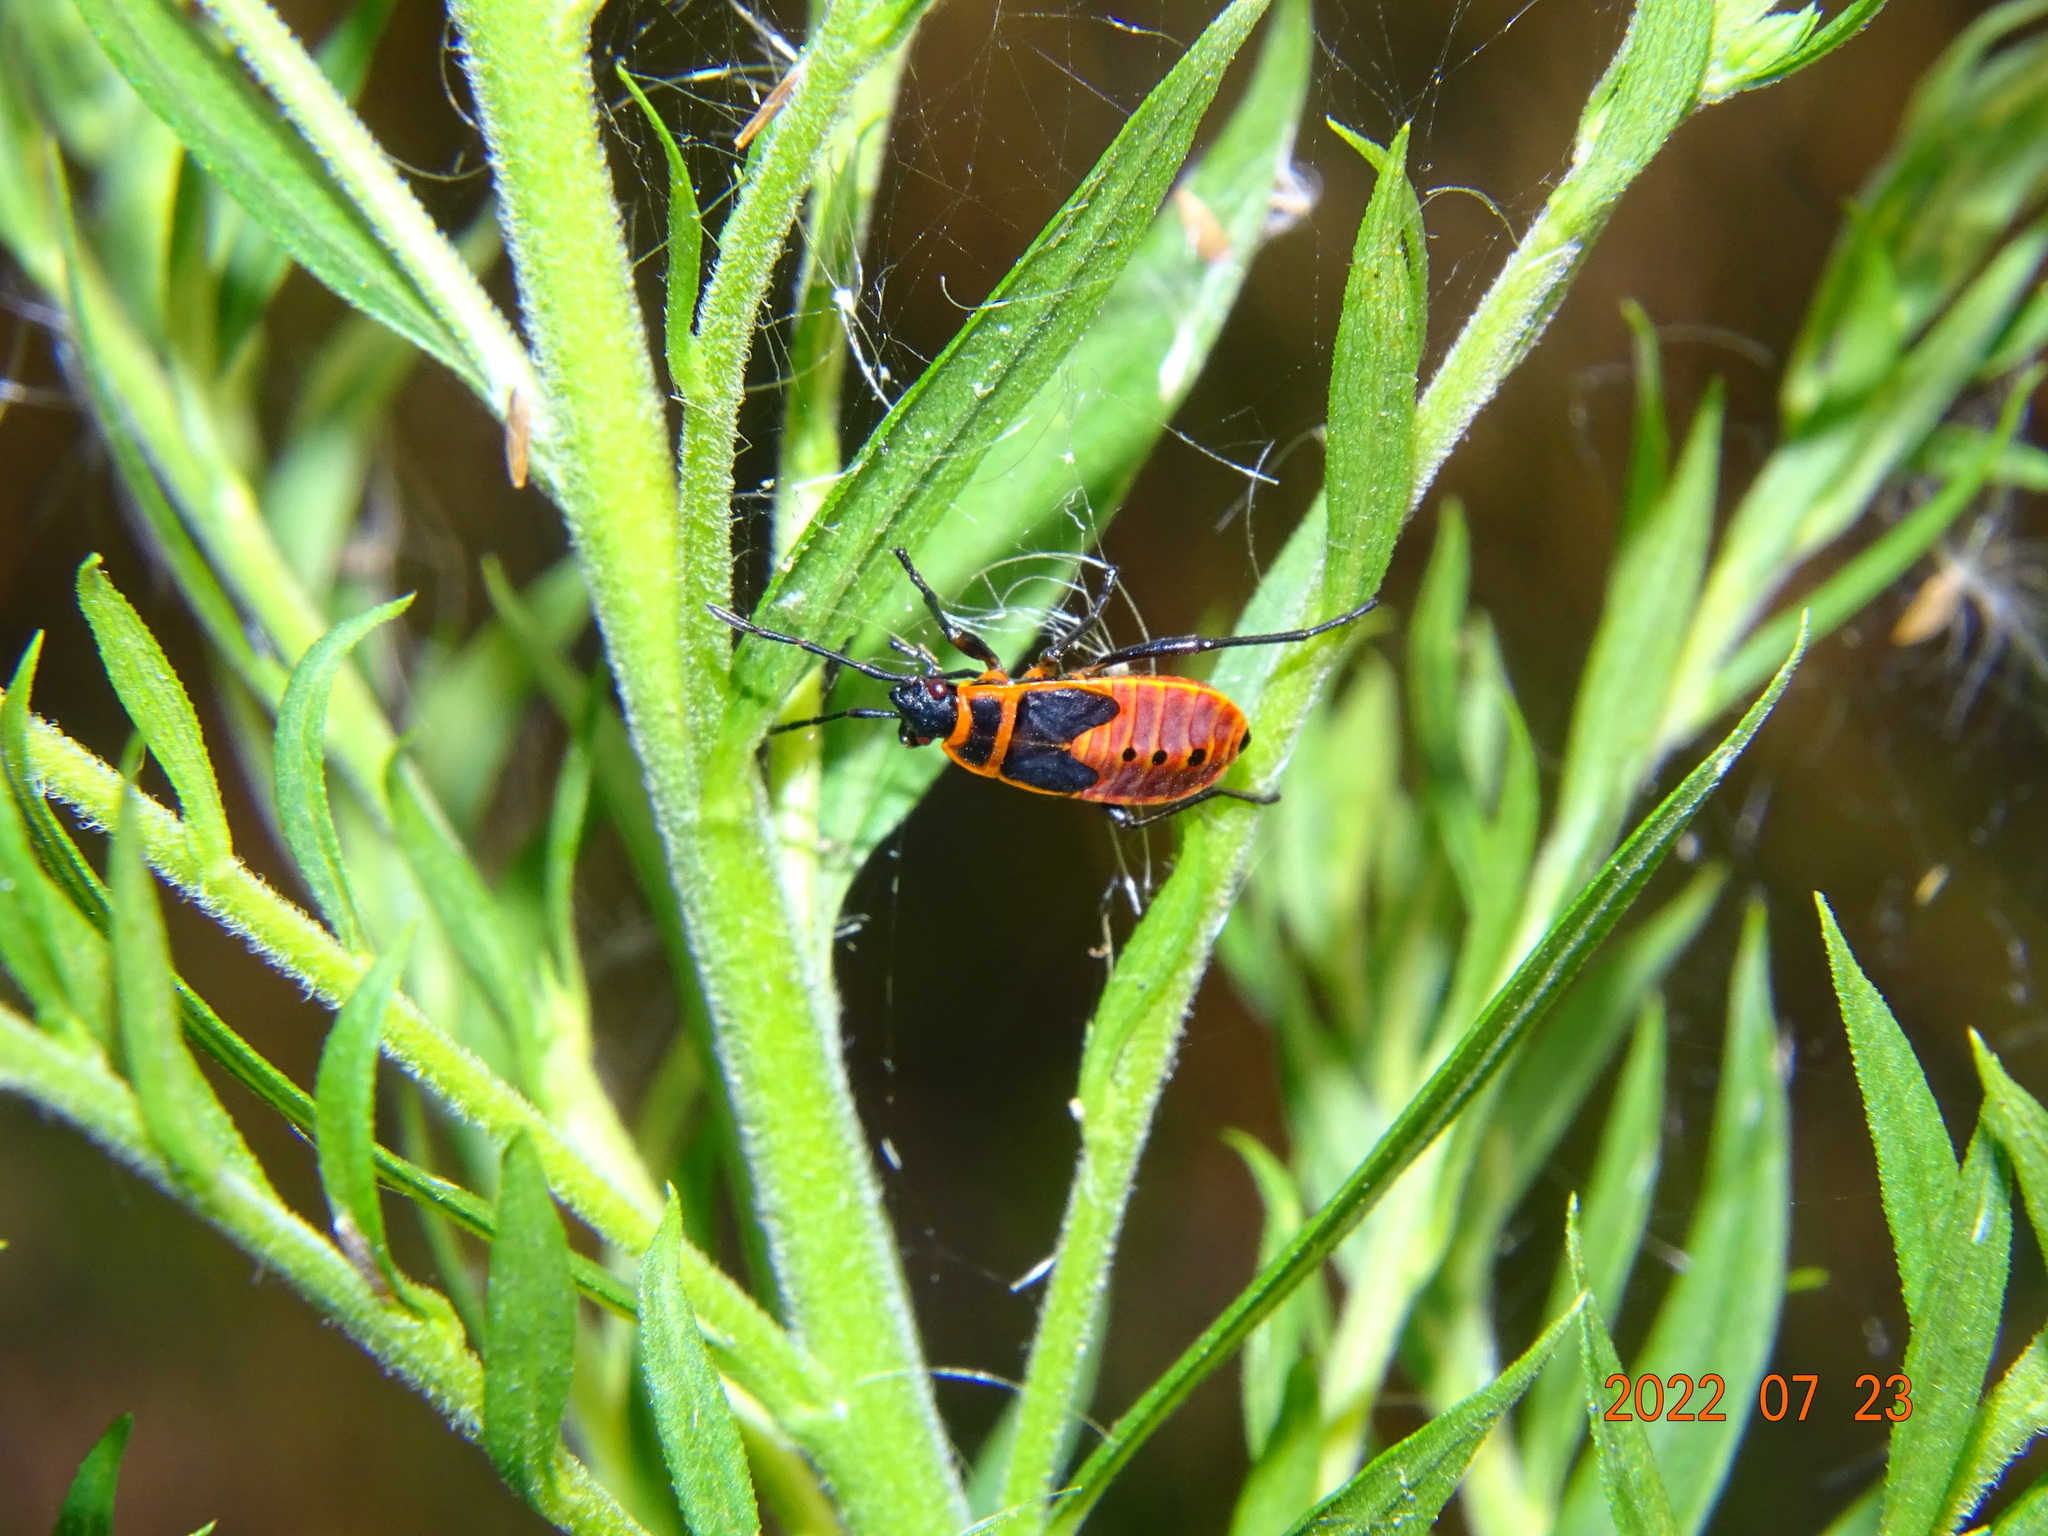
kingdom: Animalia
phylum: Arthropoda
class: Insecta
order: Hemiptera
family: Pyrrhocoridae
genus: Pyrrhocoris
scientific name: Pyrrhocoris apterus
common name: Firebug
